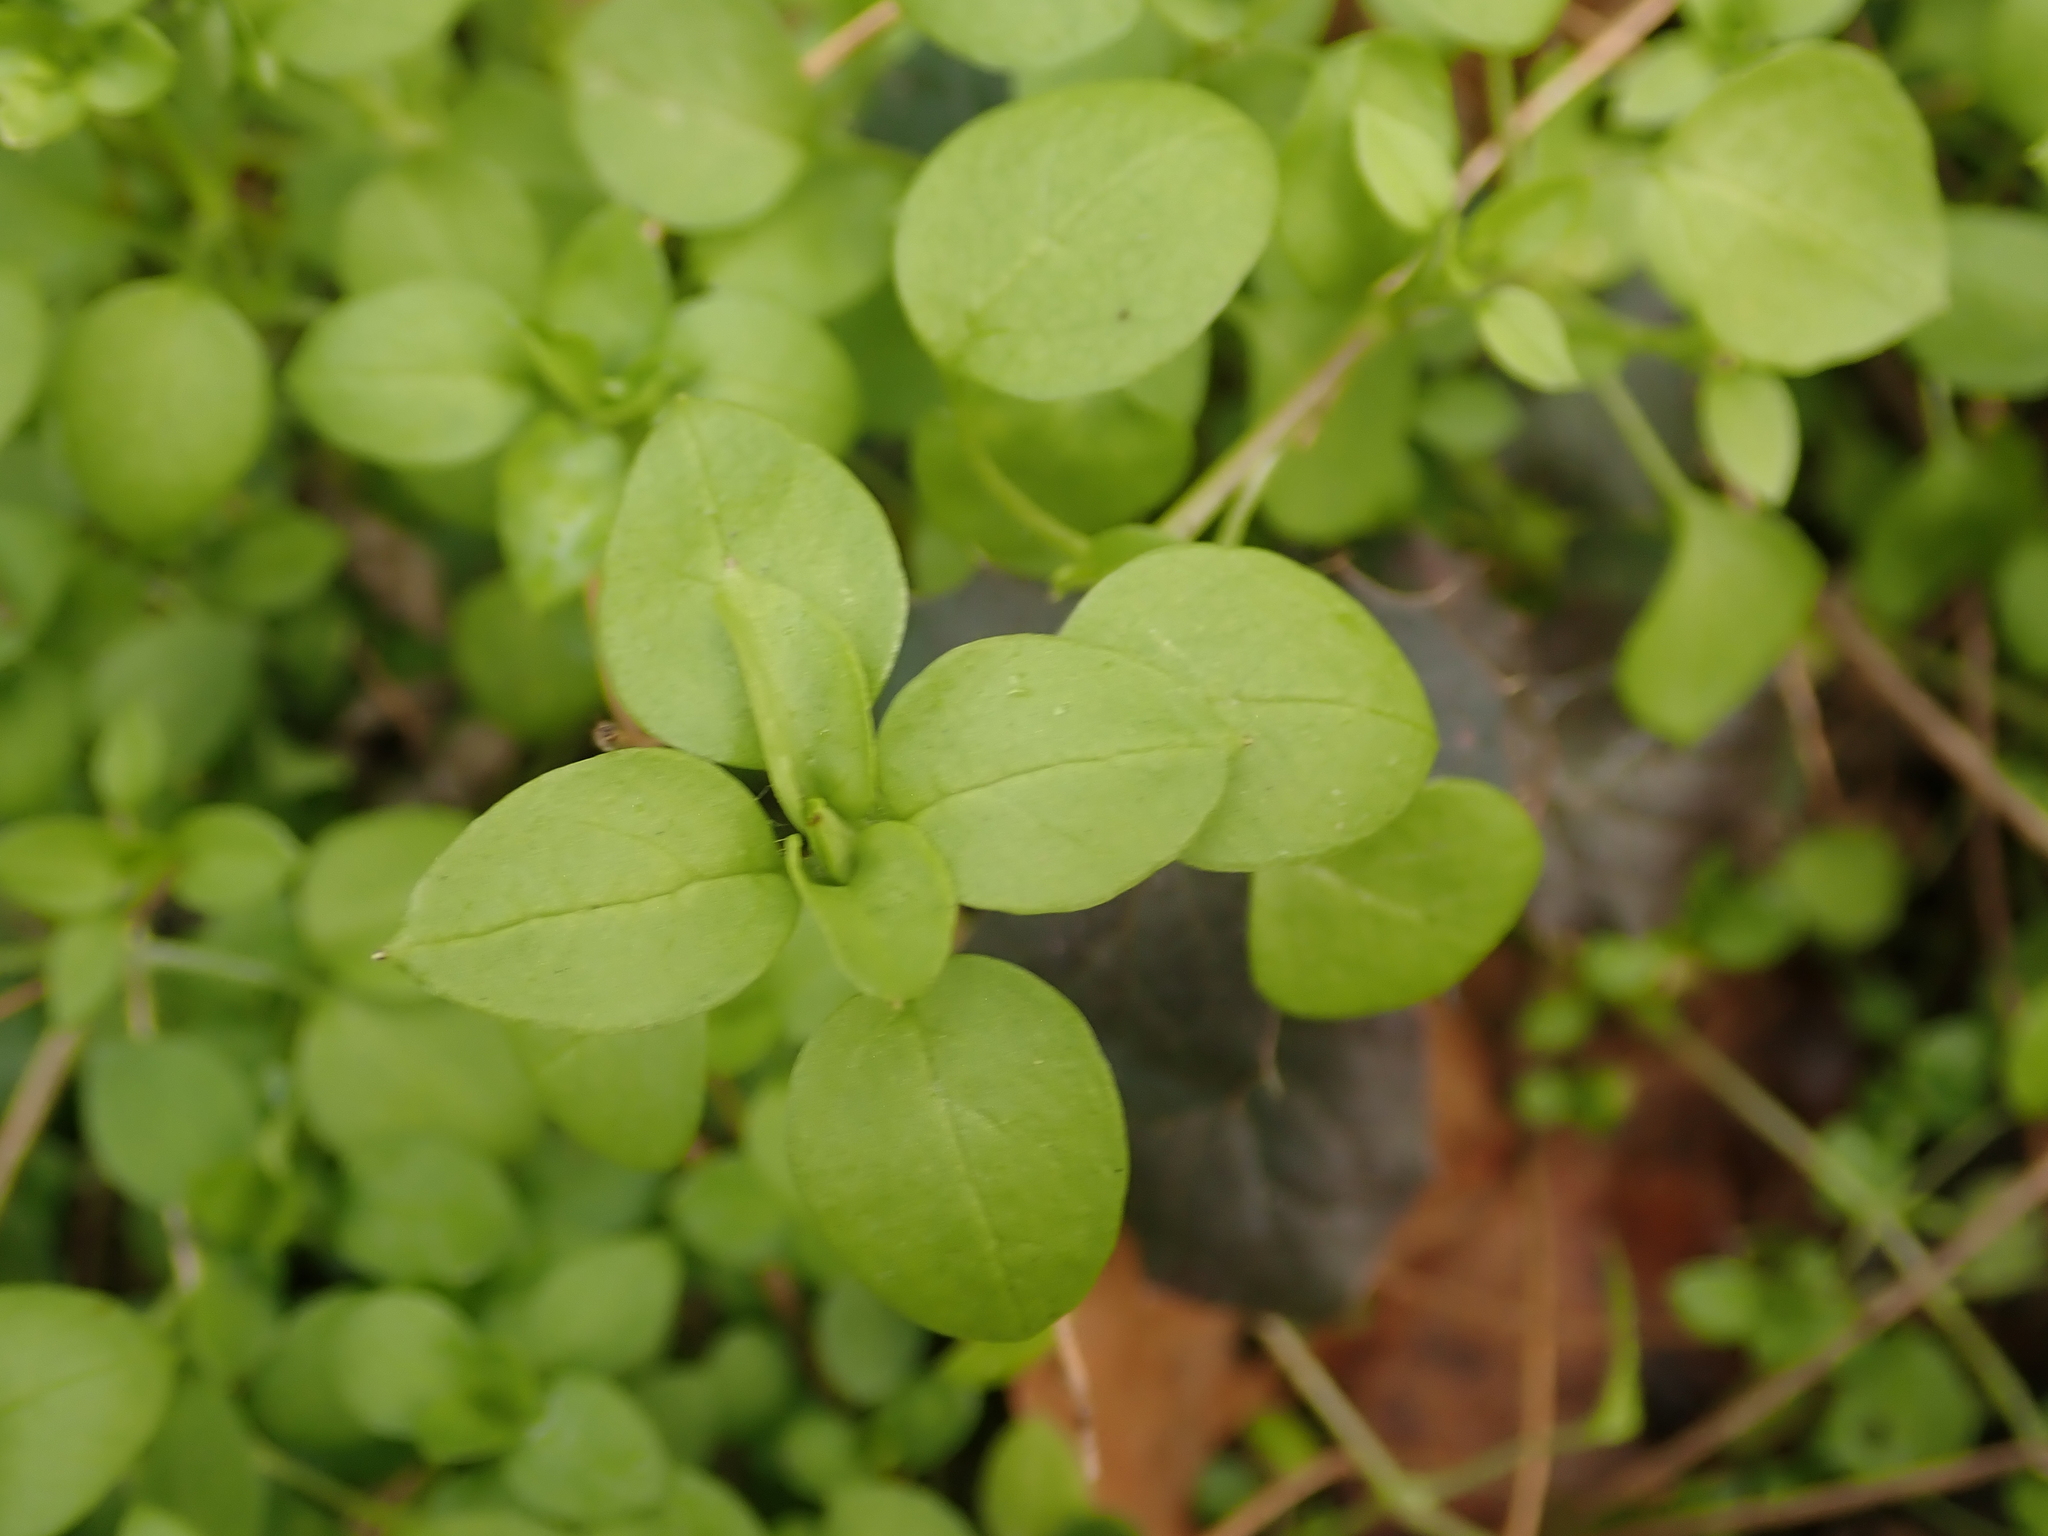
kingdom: Plantae
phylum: Tracheophyta
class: Magnoliopsida
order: Caryophyllales
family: Caryophyllaceae
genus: Stellaria
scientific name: Stellaria media
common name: Common chickweed
